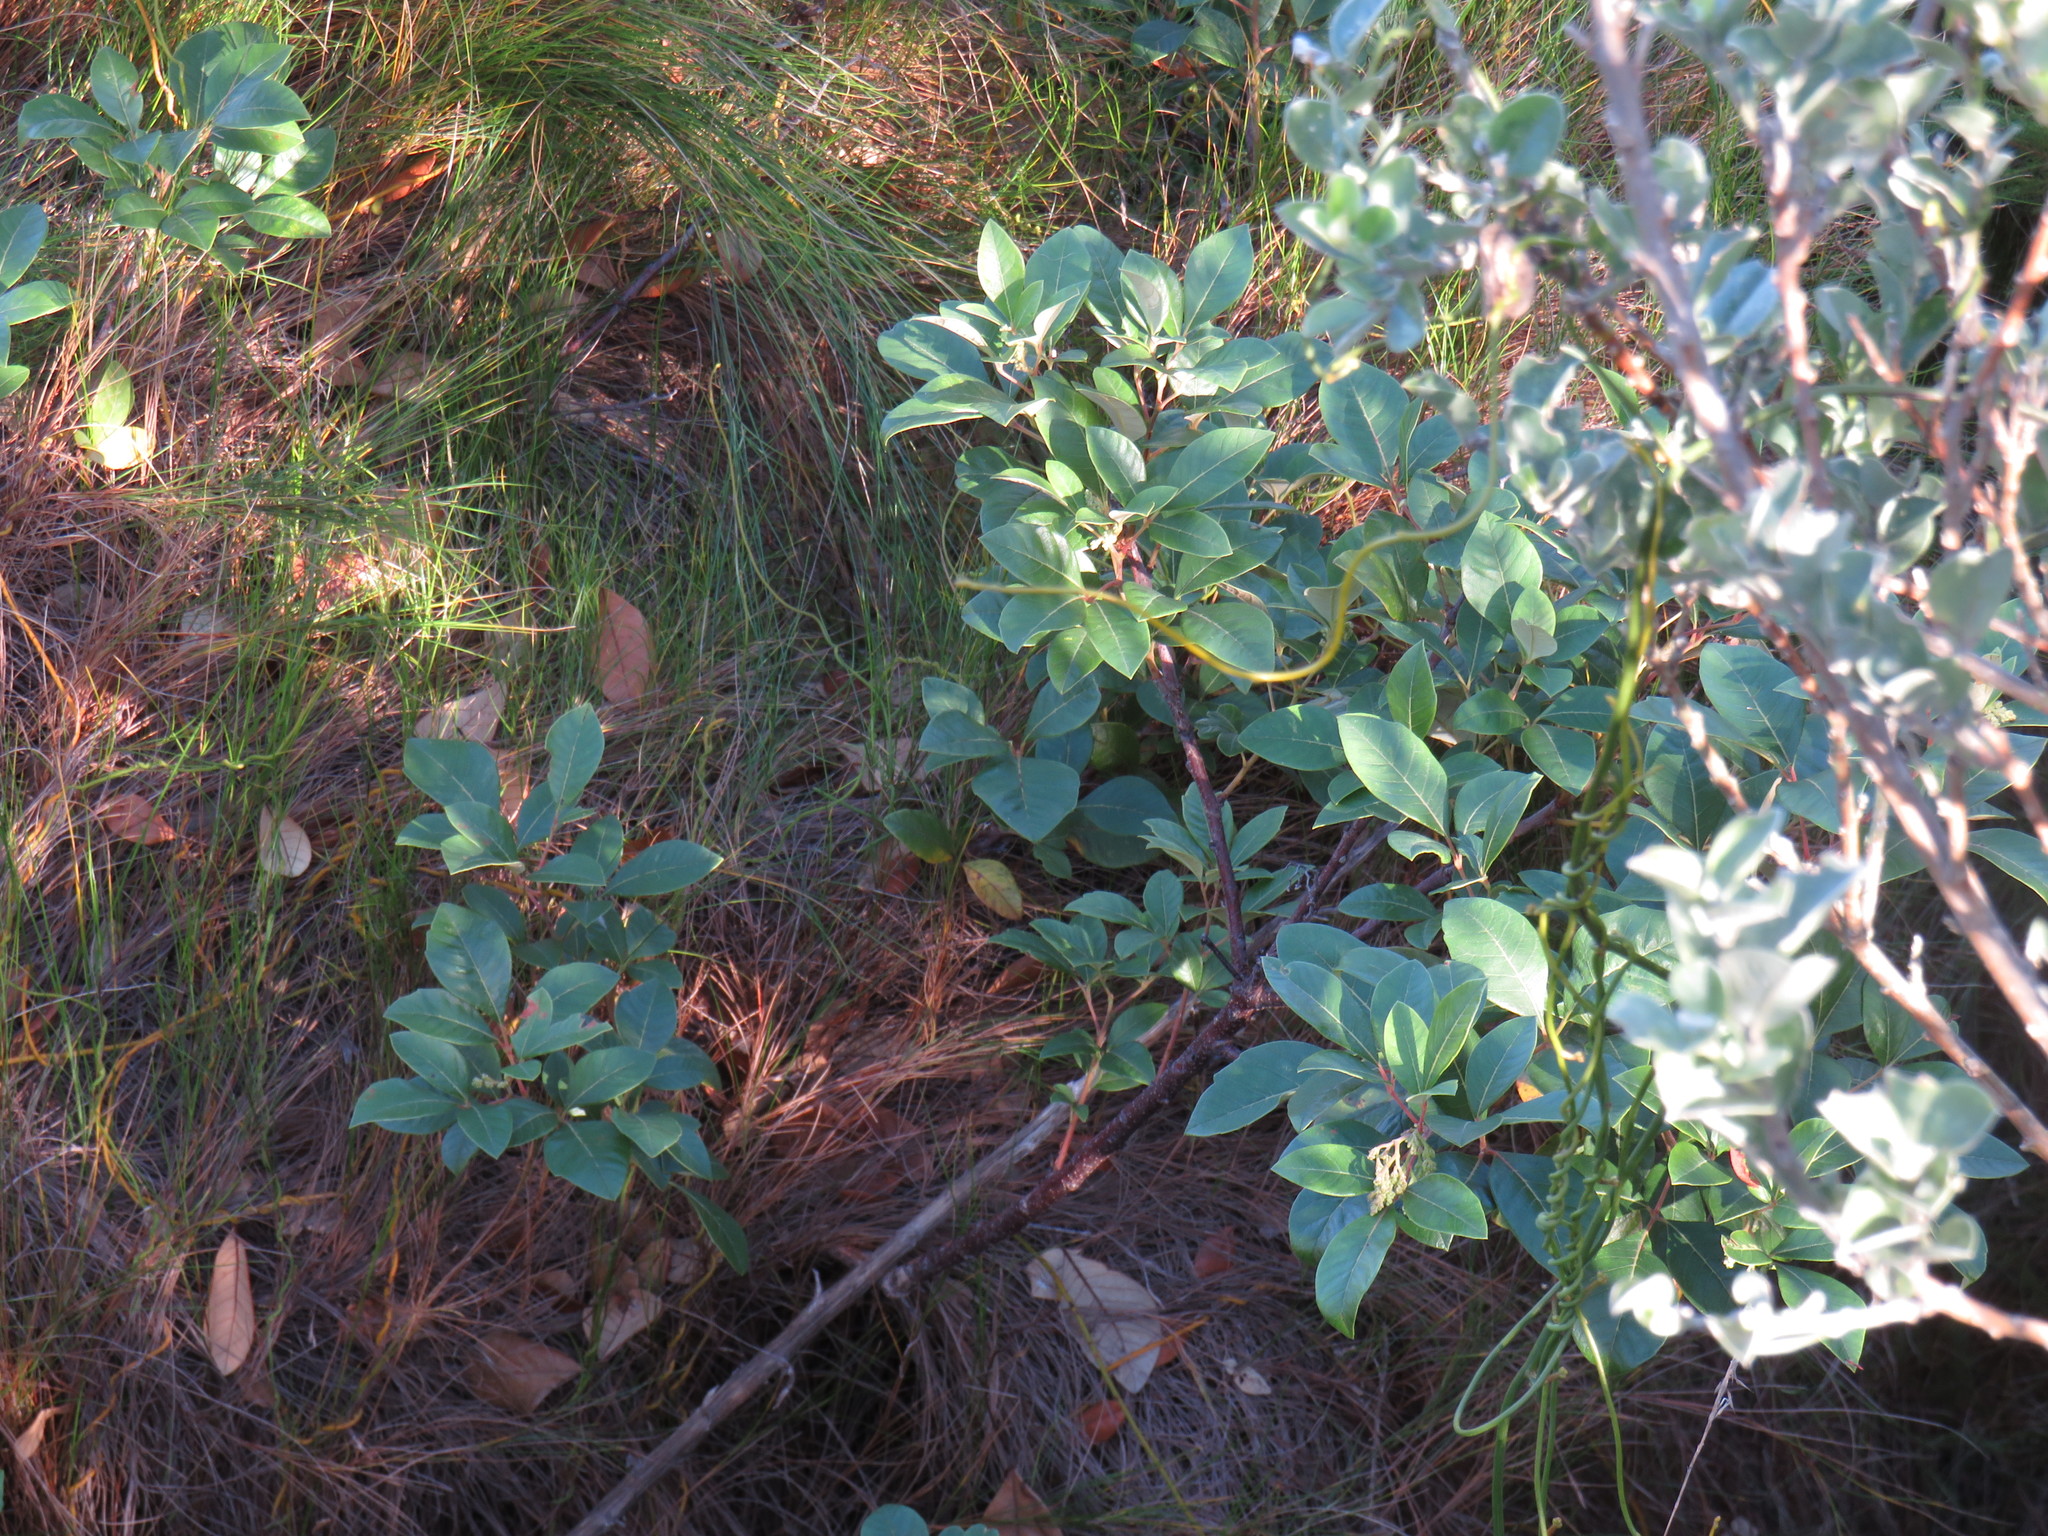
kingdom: Plantae
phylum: Tracheophyta
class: Magnoliopsida
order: Sapindales
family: Anacardiaceae
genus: Searsia
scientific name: Searsia tomentosa
